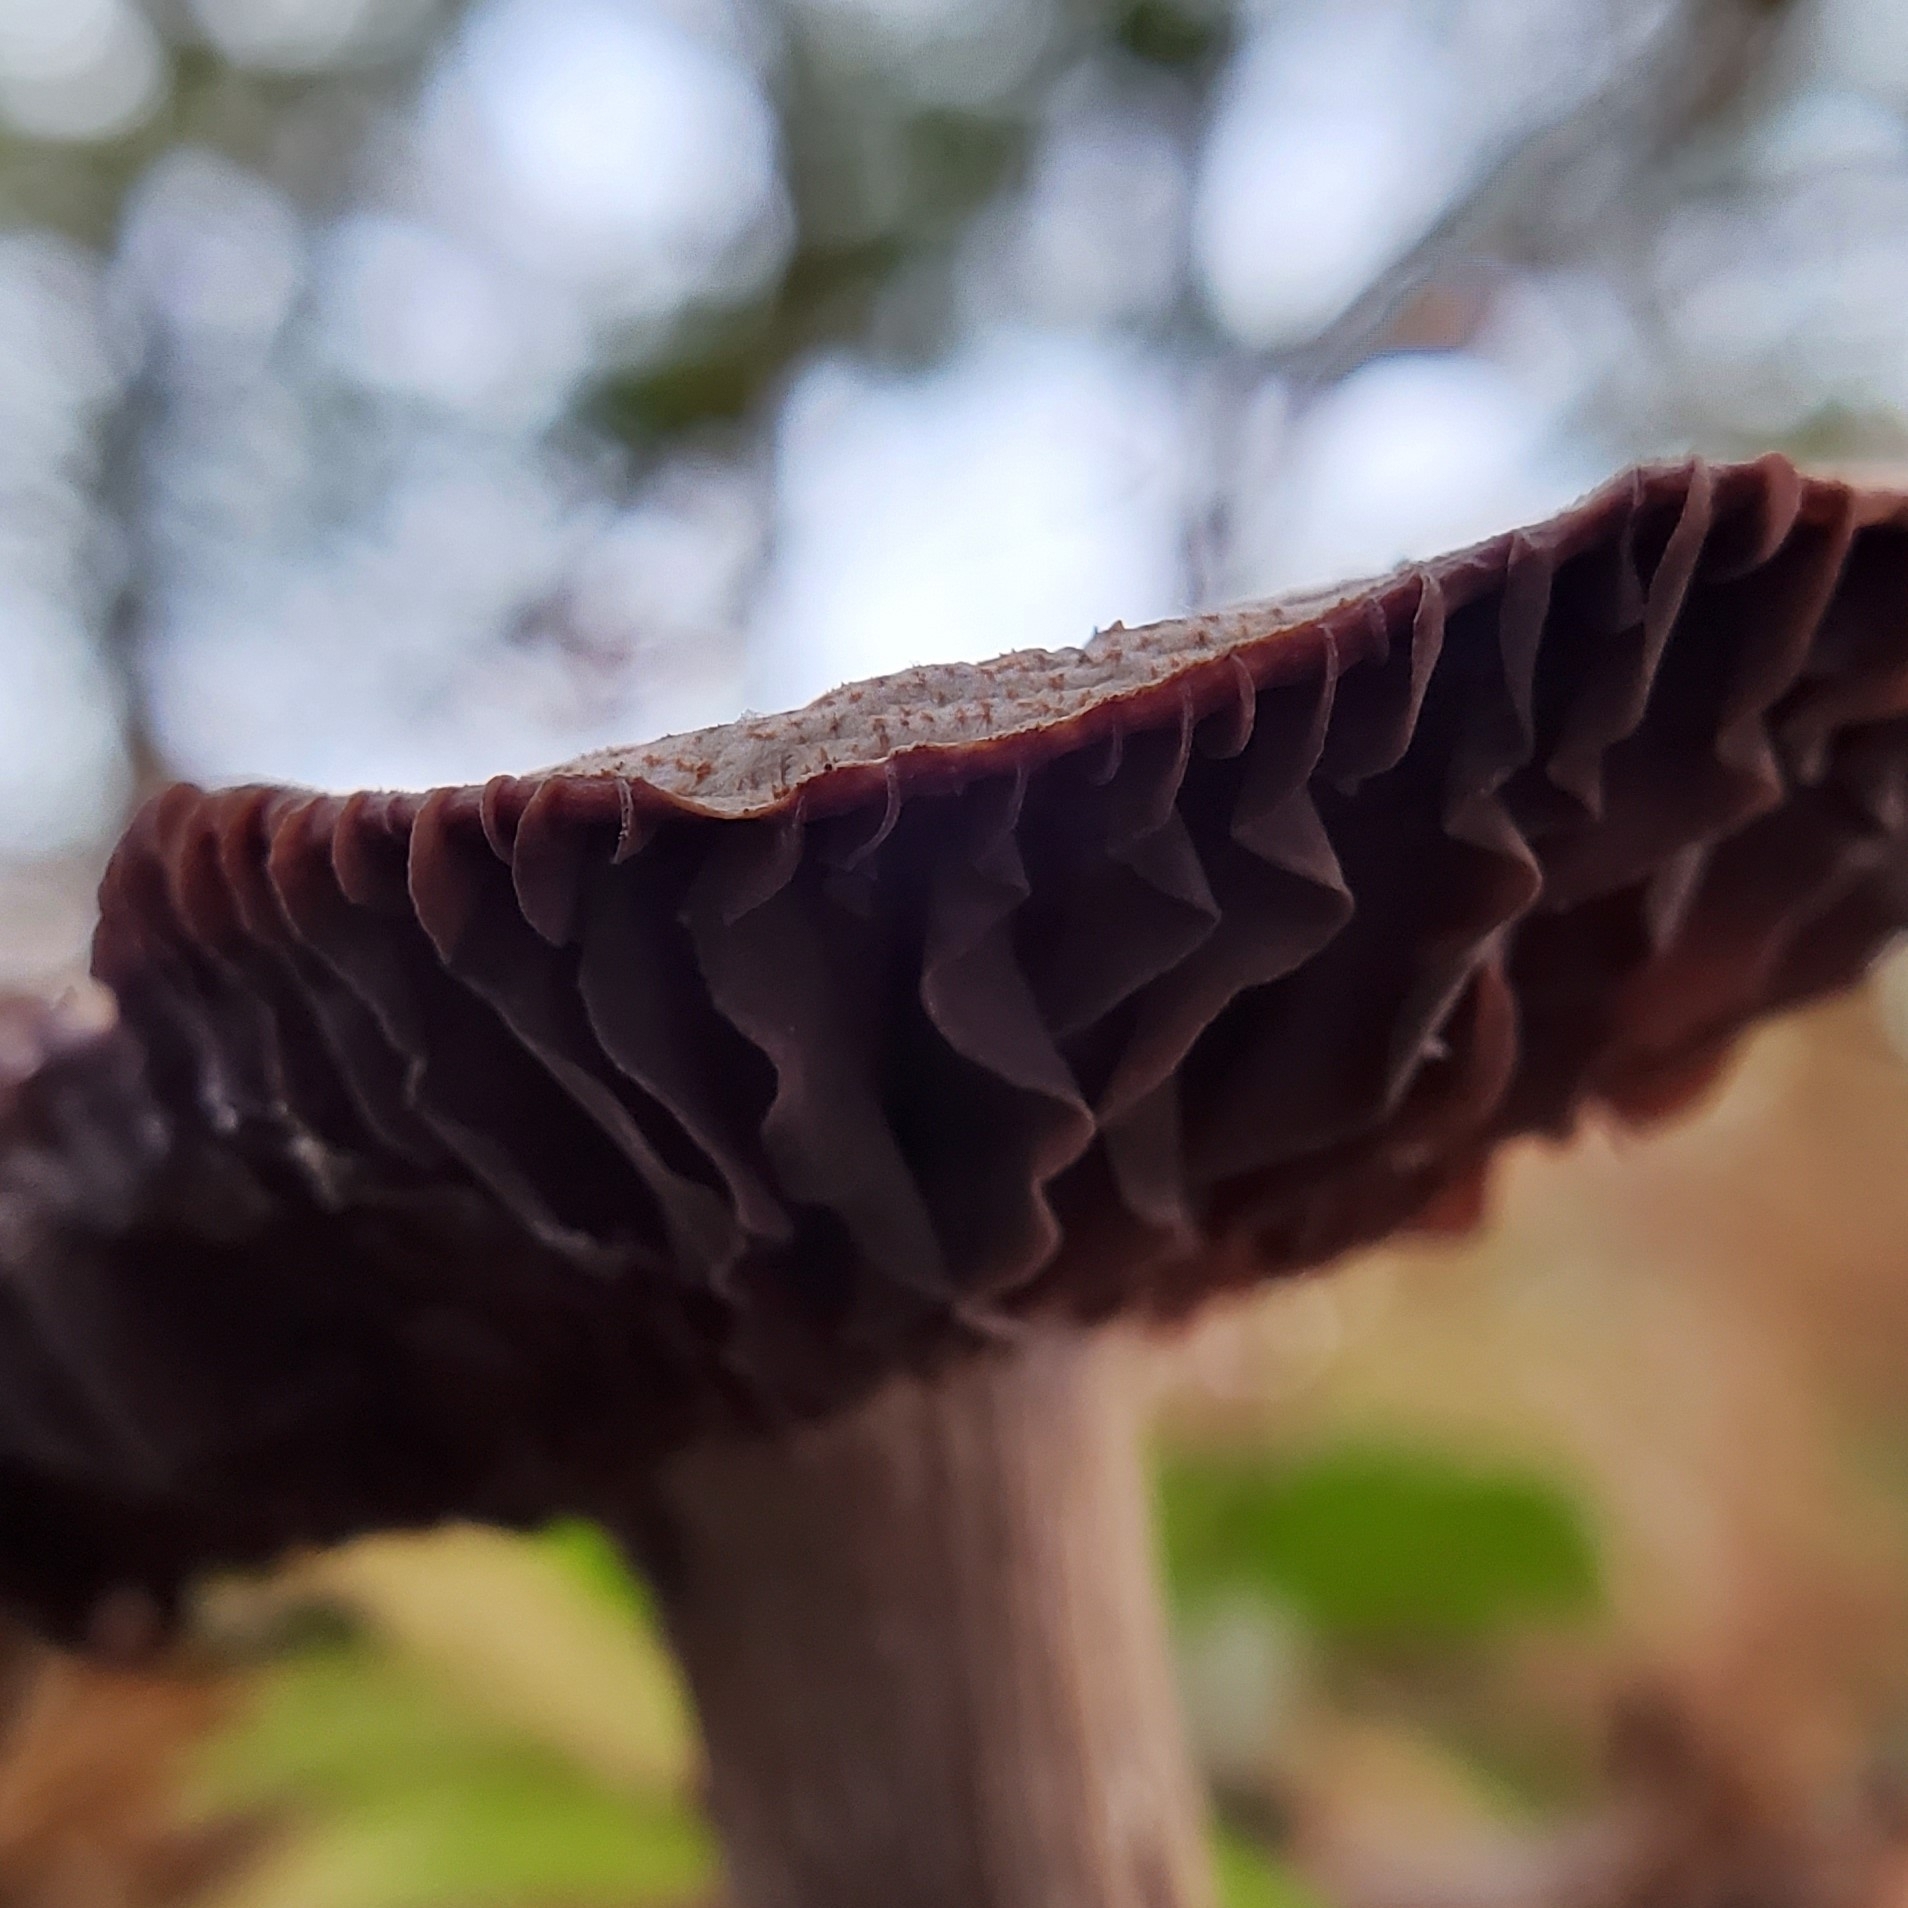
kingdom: Fungi
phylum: Basidiomycota
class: Agaricomycetes
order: Agaricales
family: Hydnangiaceae
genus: Laccaria
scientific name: Laccaria ochropurpurea
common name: Purple laccaria
